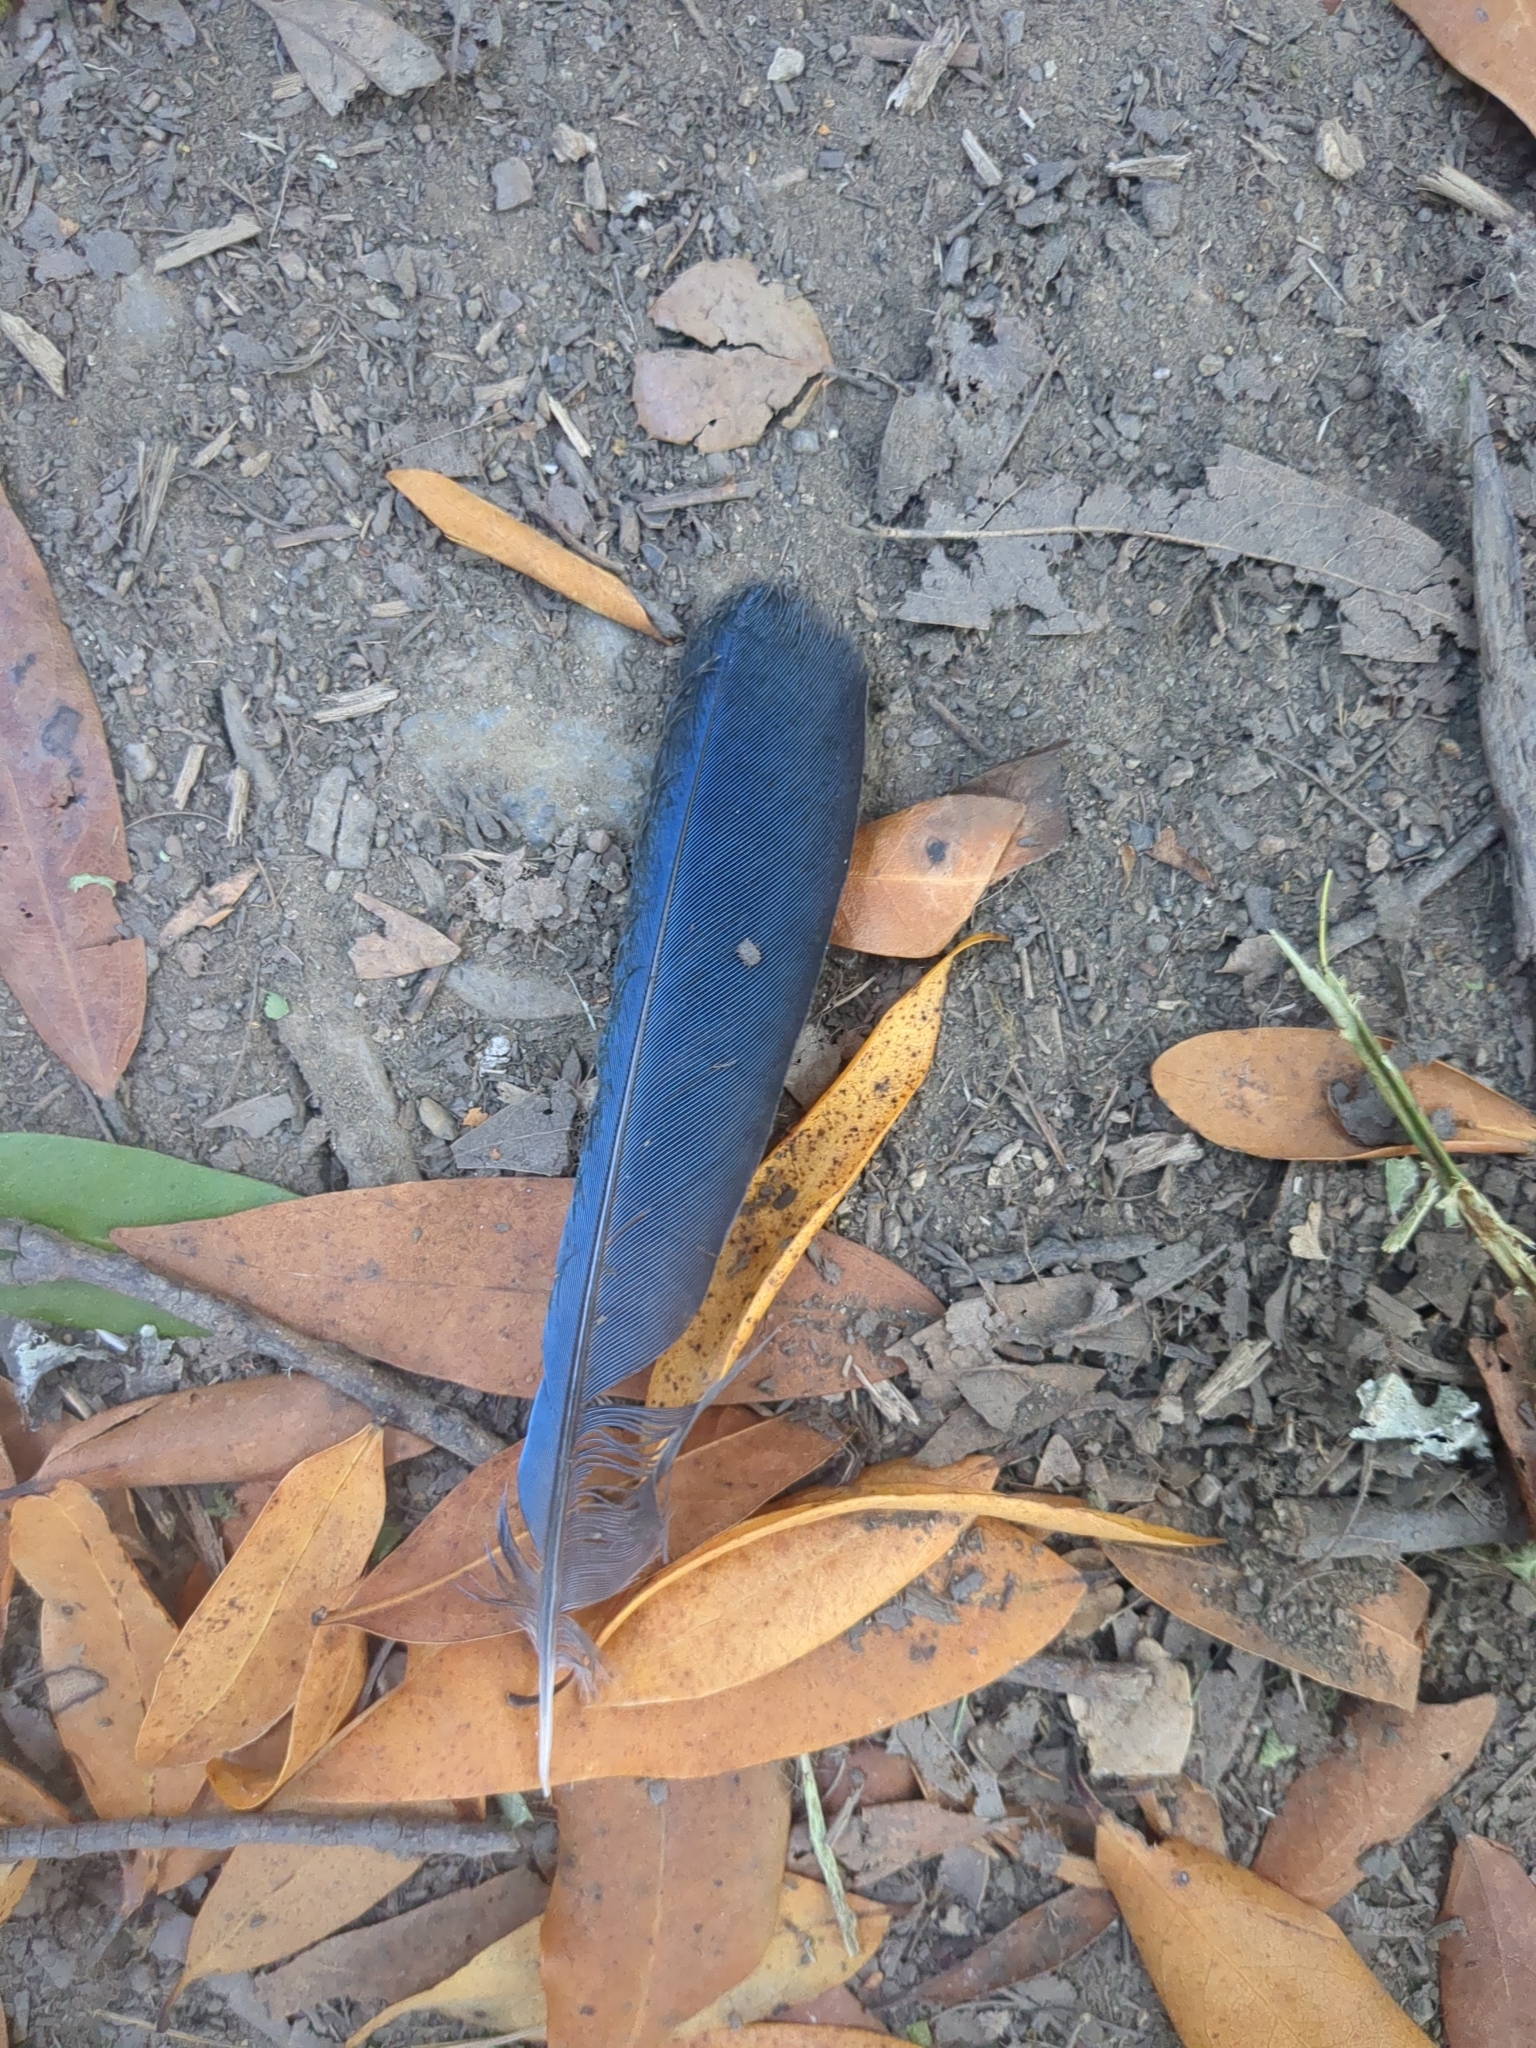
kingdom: Animalia
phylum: Chordata
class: Aves
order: Passeriformes
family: Corvidae
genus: Cyanocitta
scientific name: Cyanocitta stelleri
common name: Steller's jay
